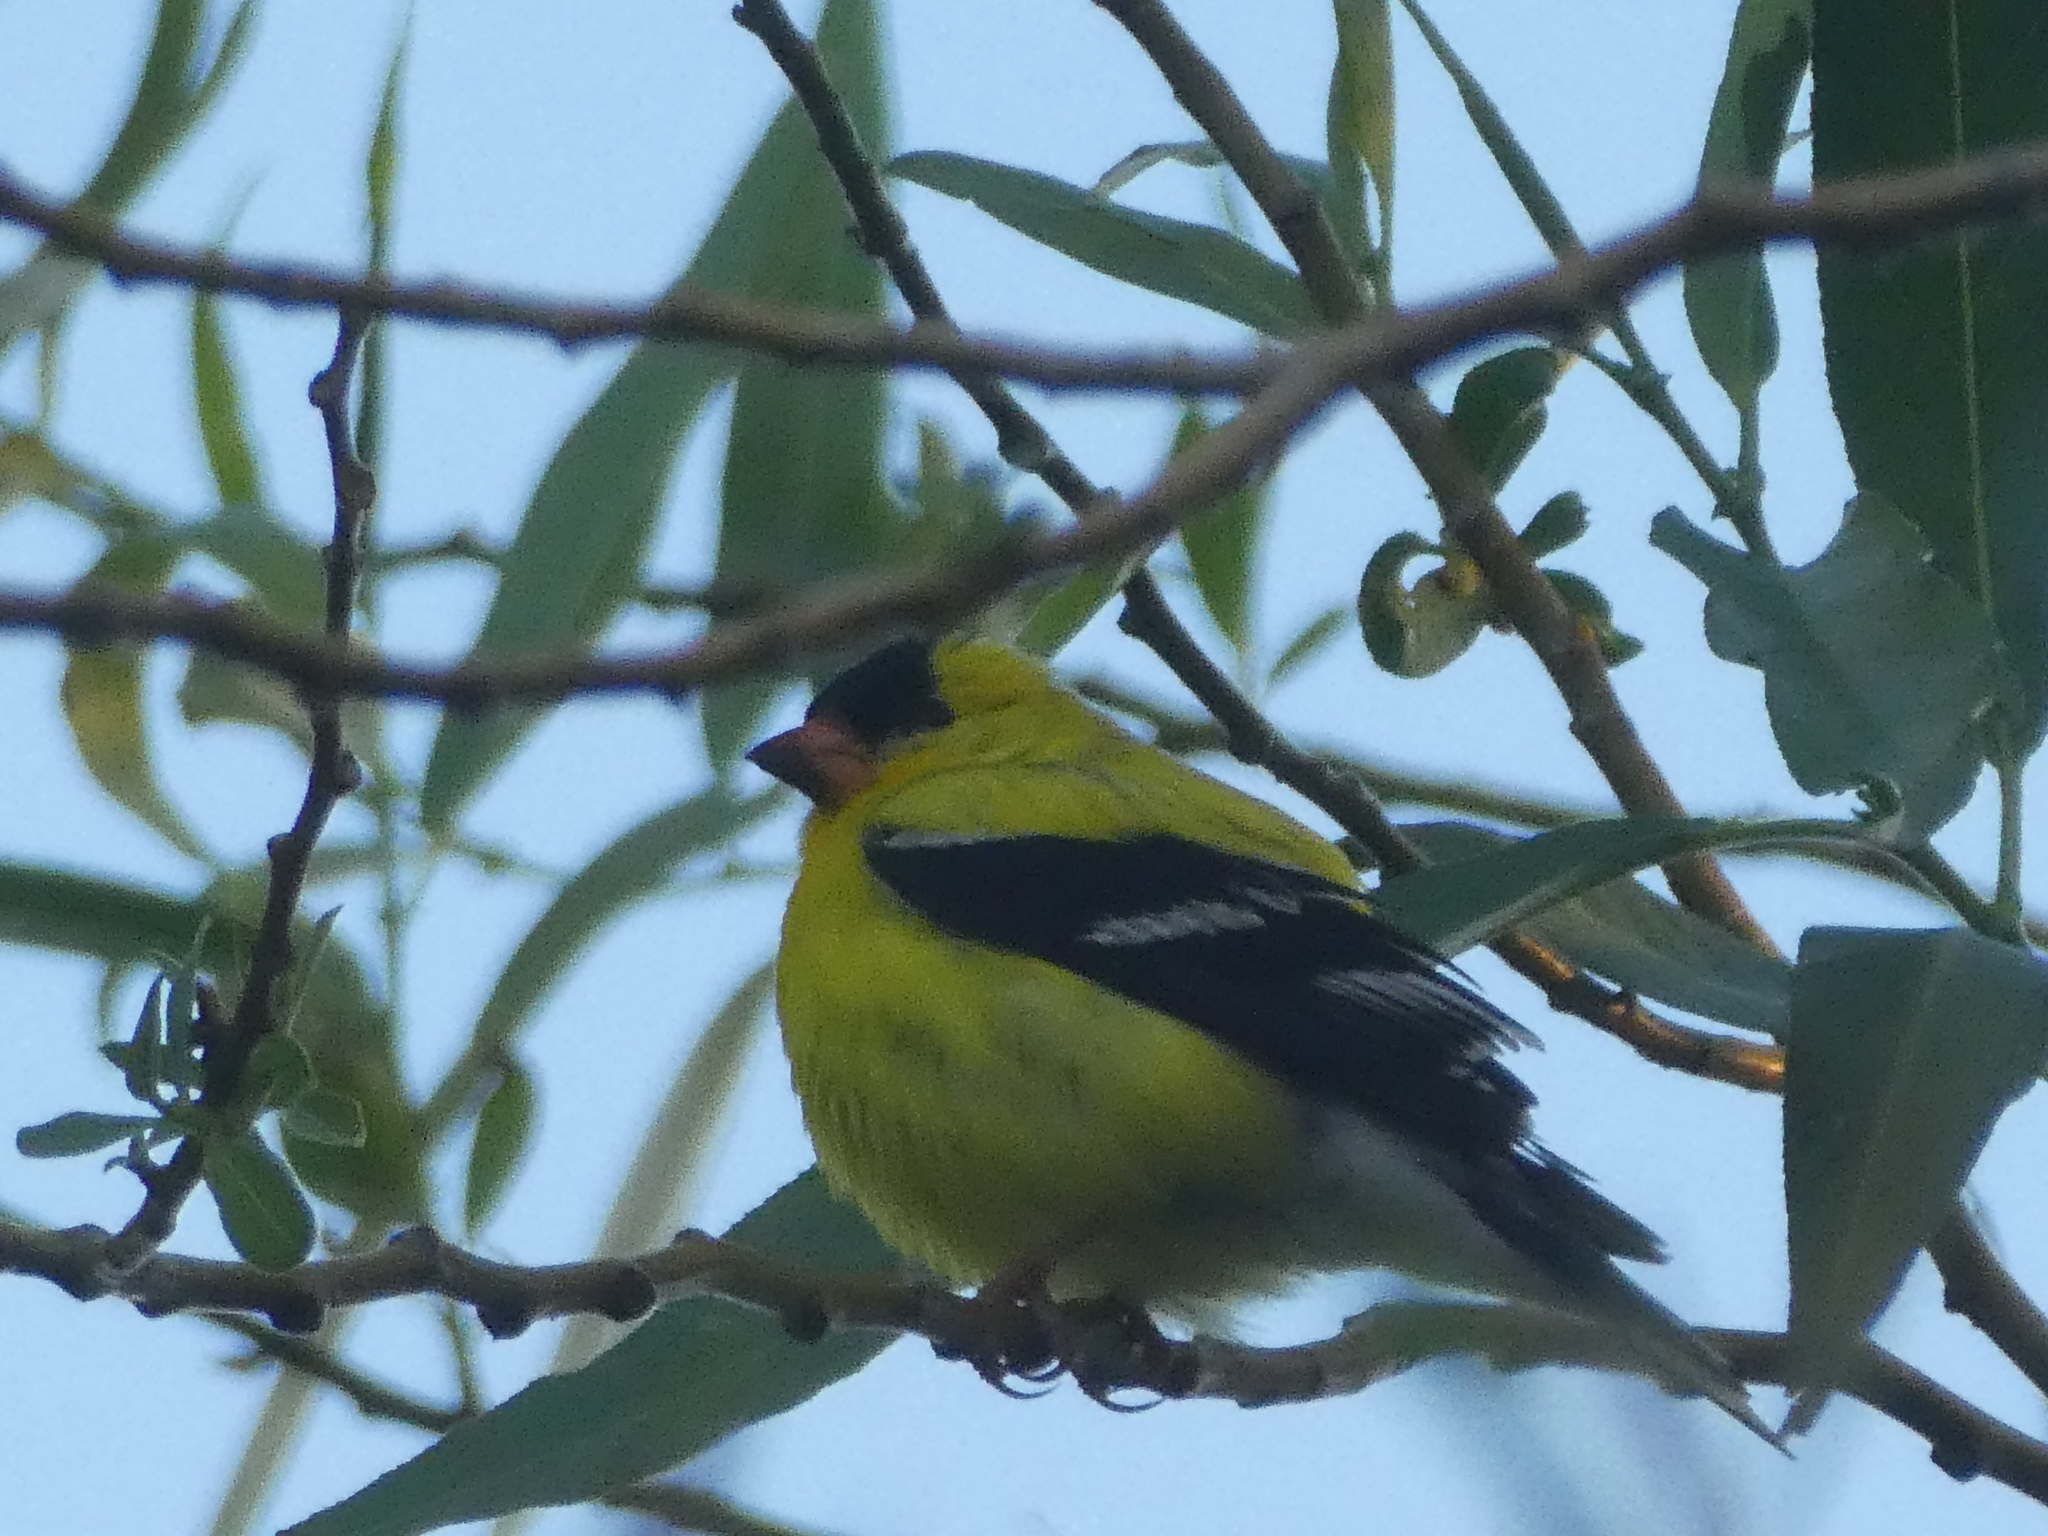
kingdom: Animalia
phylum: Chordata
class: Aves
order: Passeriformes
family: Fringillidae
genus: Spinus
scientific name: Spinus tristis
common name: American goldfinch
